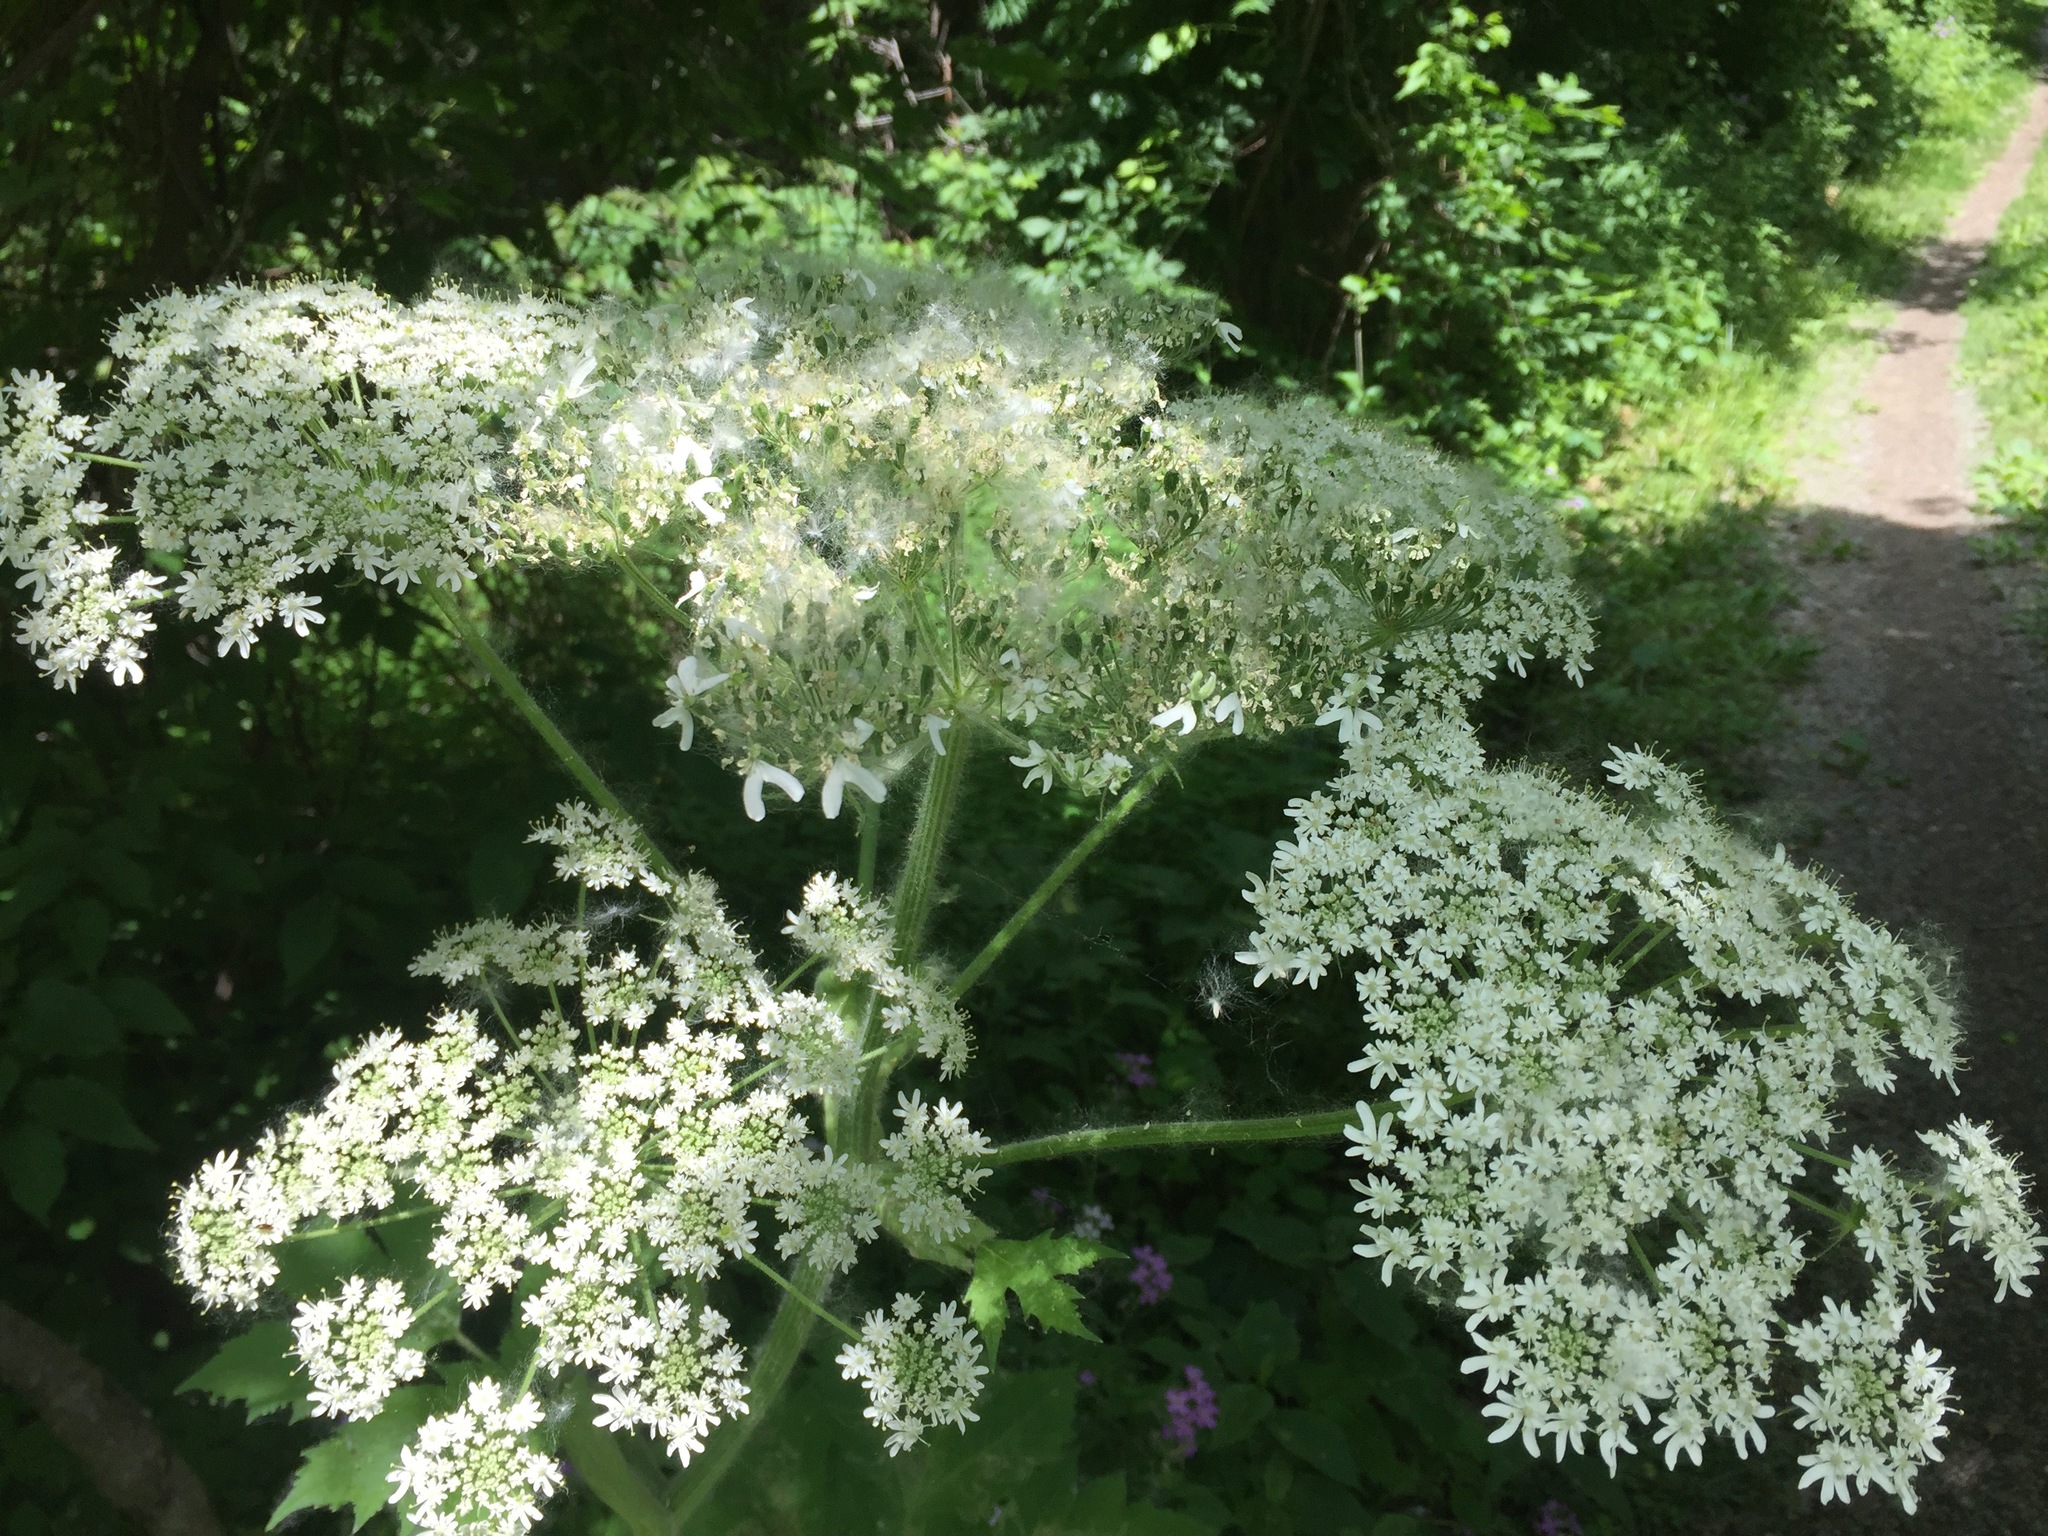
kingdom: Plantae
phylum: Tracheophyta
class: Magnoliopsida
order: Apiales
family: Apiaceae
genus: Heracleum
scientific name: Heracleum maximum
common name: American cow parsnip
